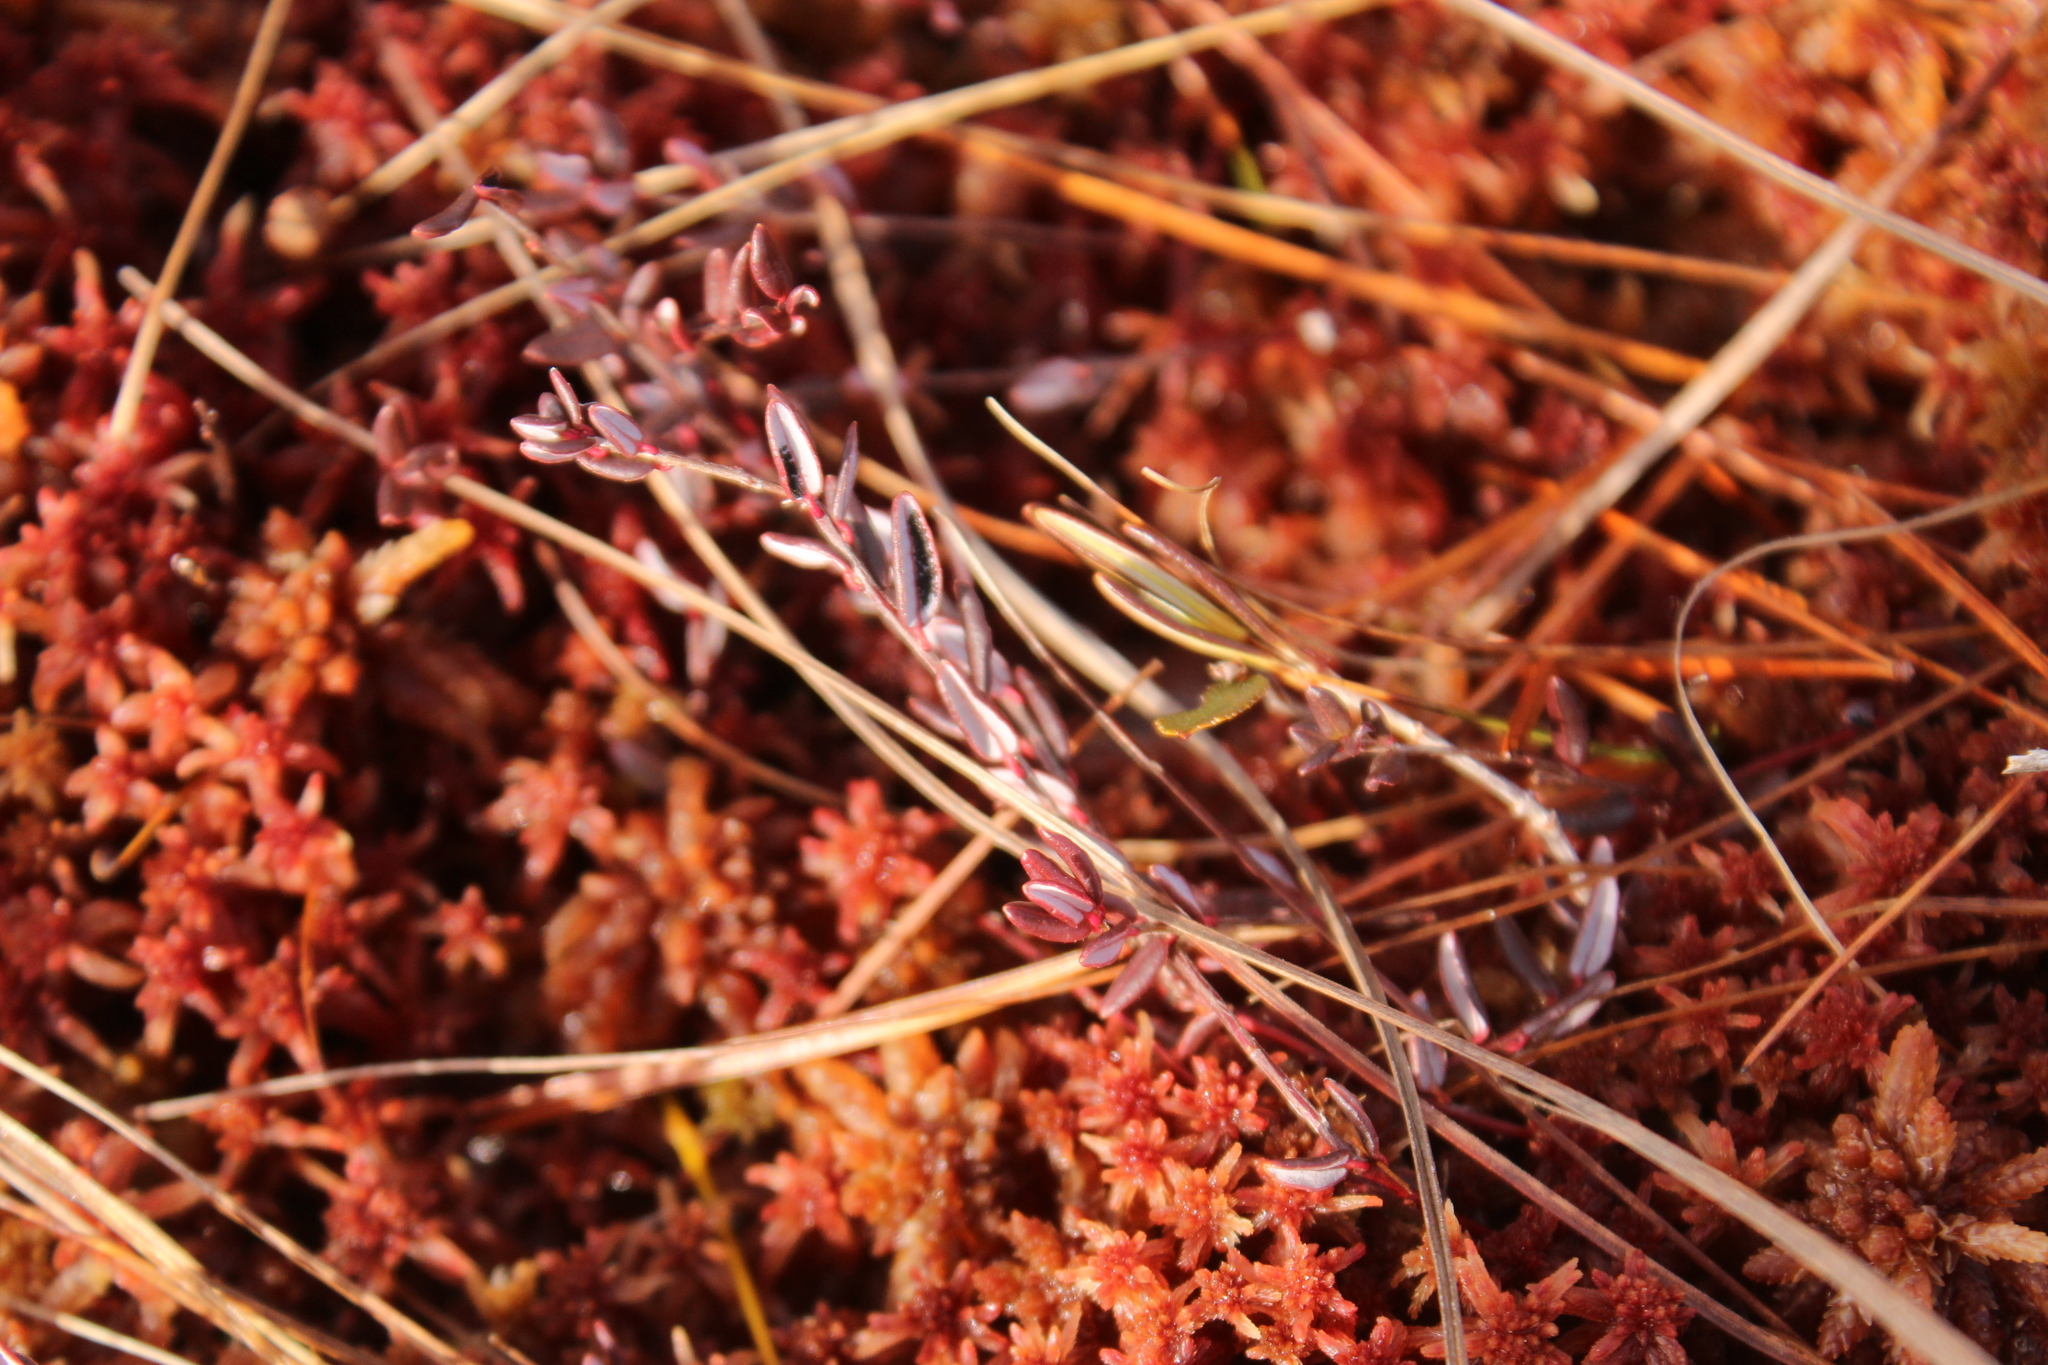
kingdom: Plantae
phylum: Tracheophyta
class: Magnoliopsida
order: Ericales
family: Ericaceae
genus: Vaccinium
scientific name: Vaccinium oxycoccos
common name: Cranberry
